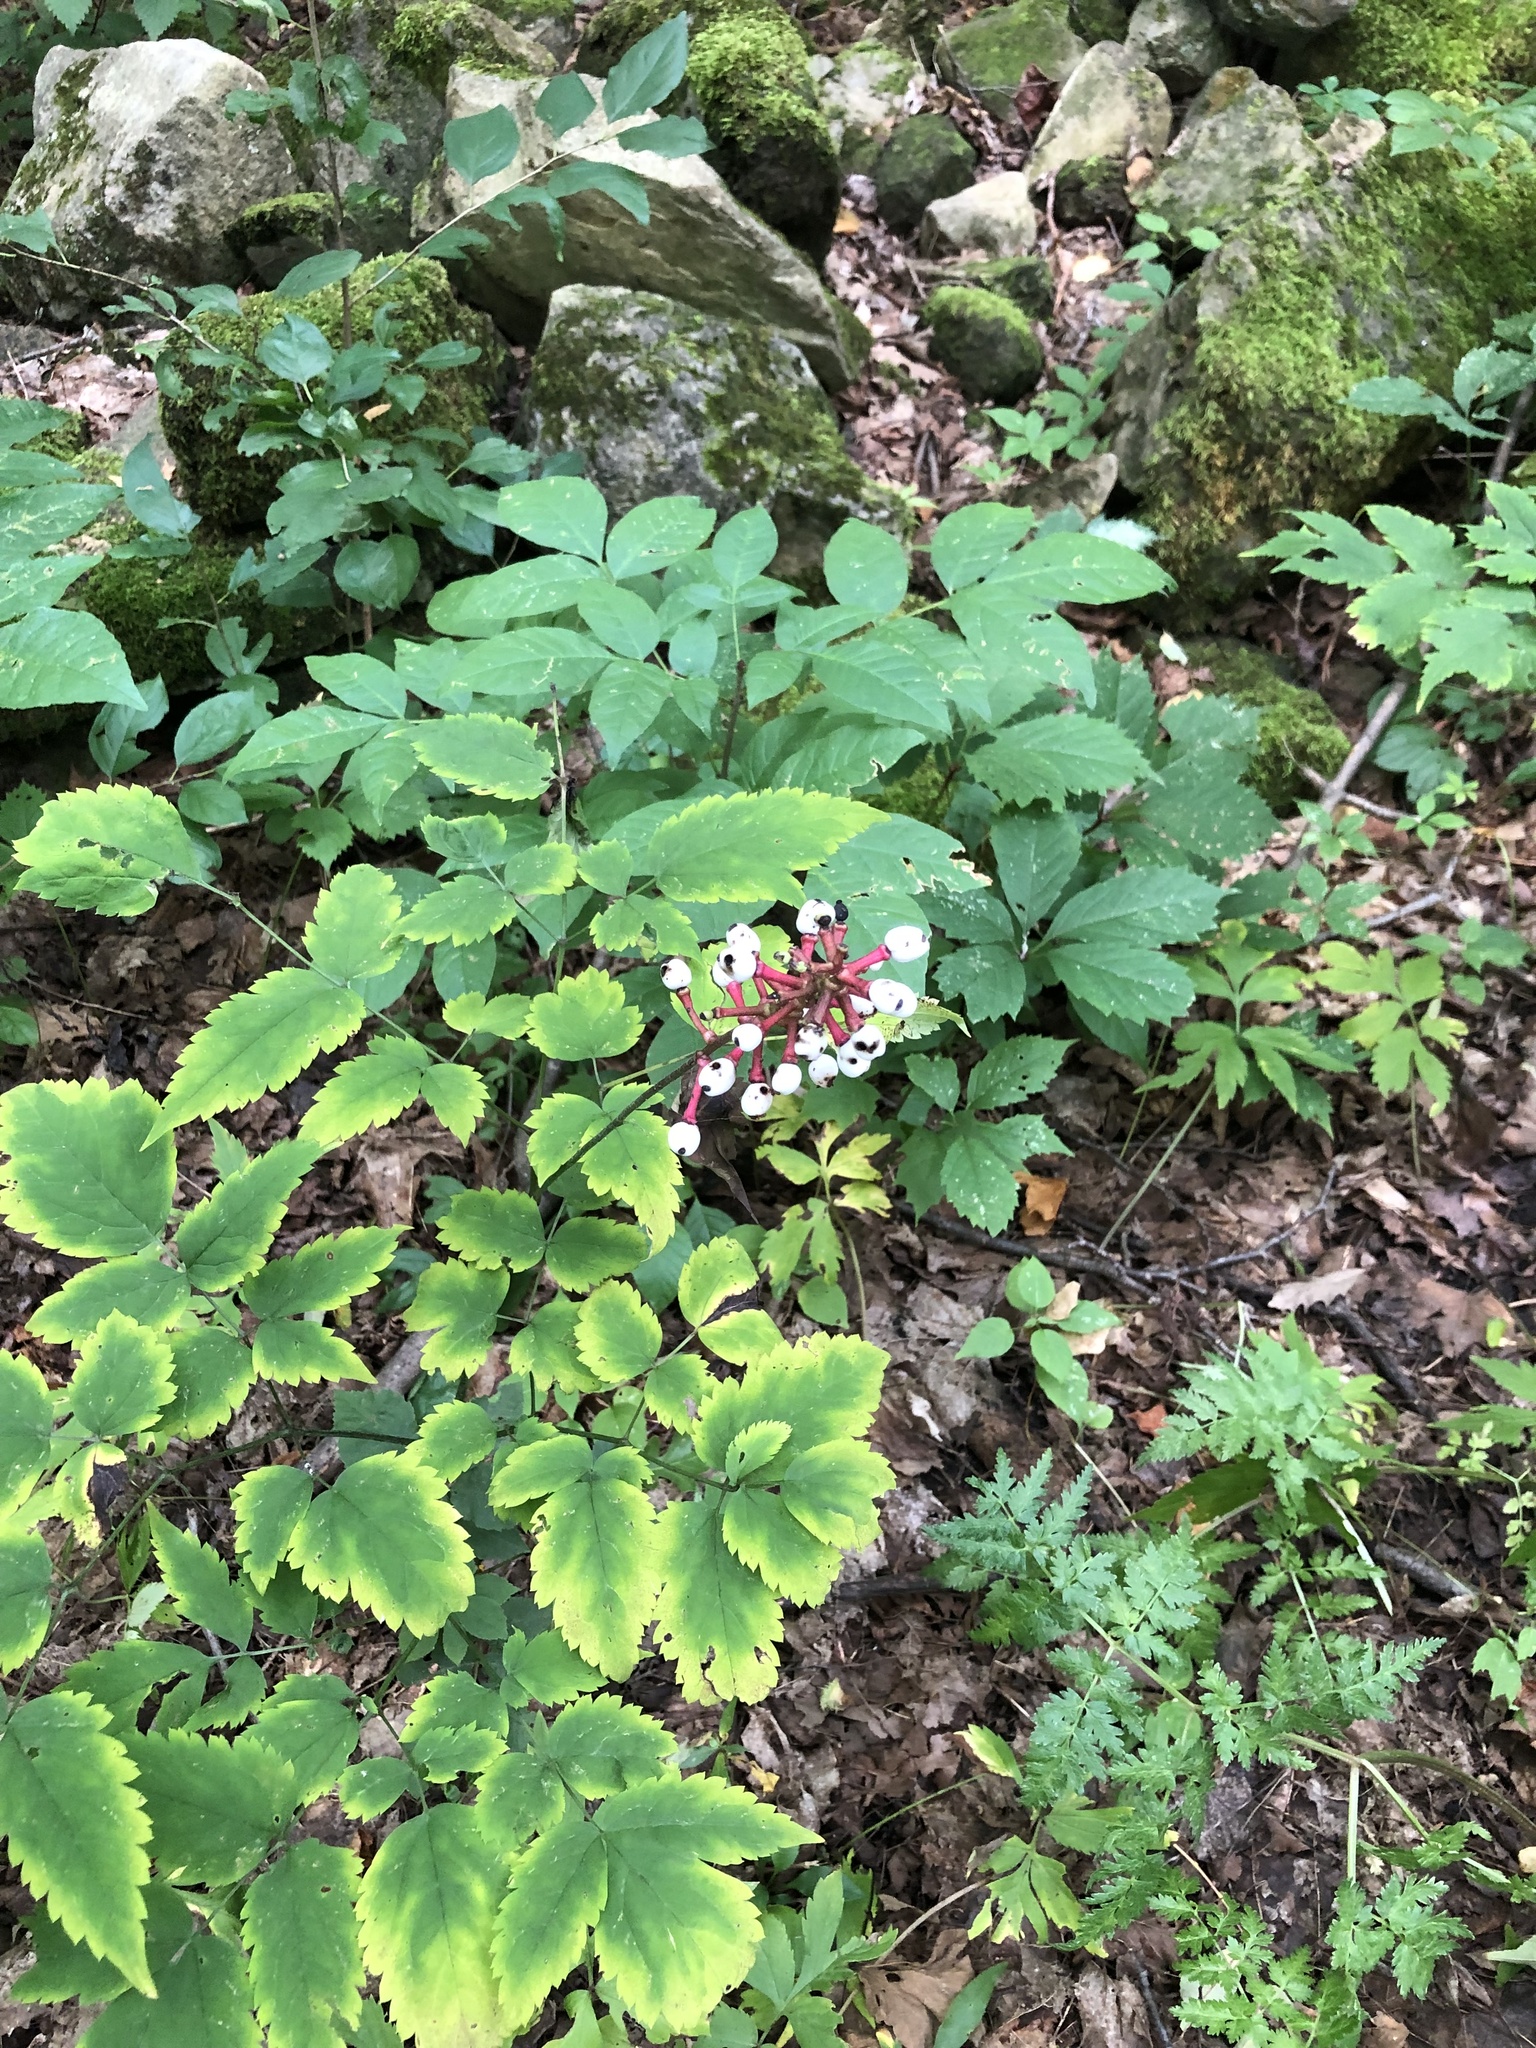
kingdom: Plantae
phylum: Tracheophyta
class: Magnoliopsida
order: Ranunculales
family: Ranunculaceae
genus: Actaea
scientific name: Actaea pachypoda
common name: Doll's-eyes
